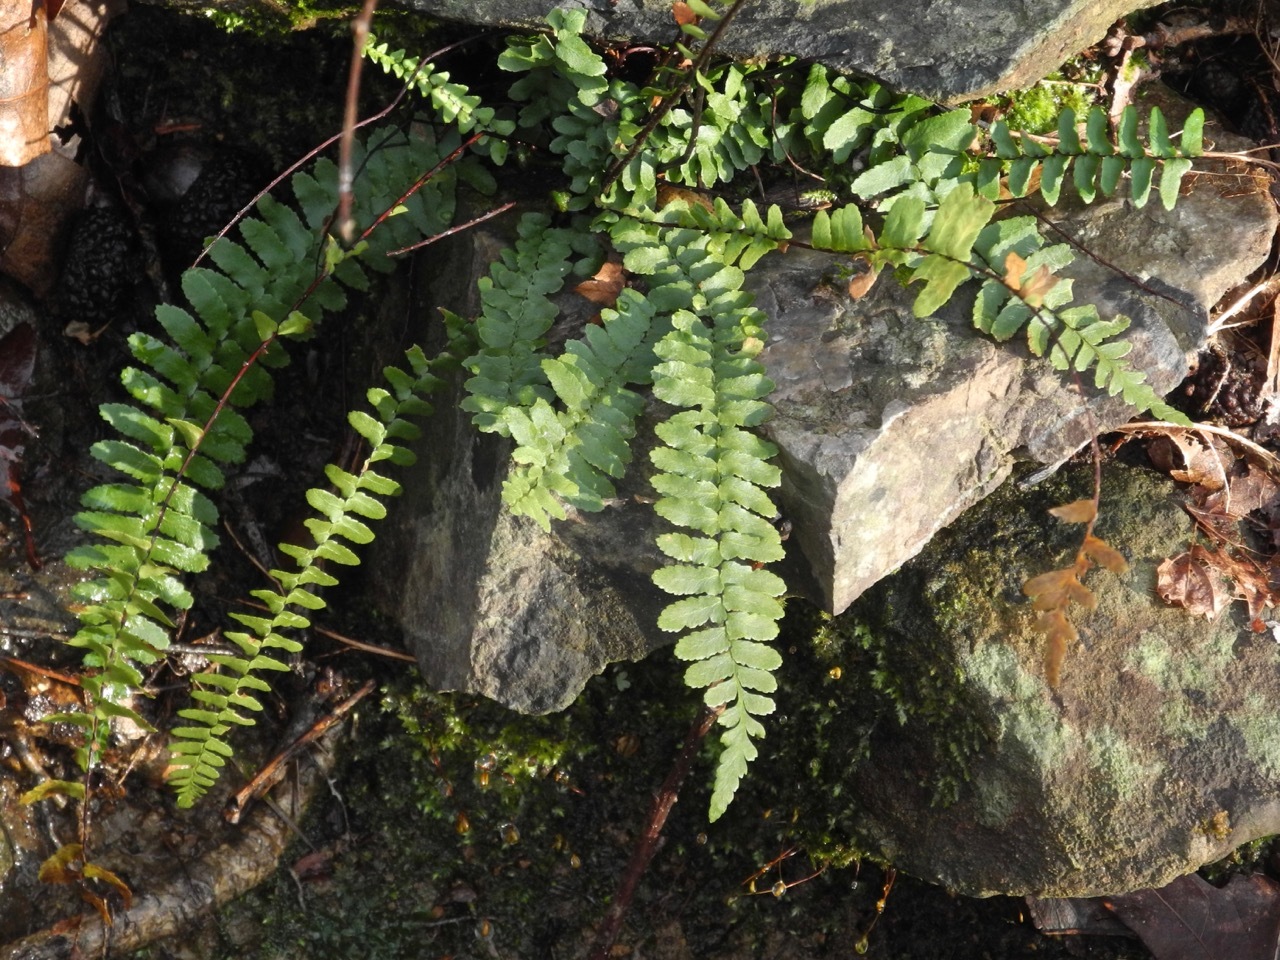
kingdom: Plantae
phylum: Tracheophyta
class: Polypodiopsida
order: Polypodiales
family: Aspleniaceae
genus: Asplenium
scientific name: Asplenium platyneuron
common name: Ebony spleenwort
